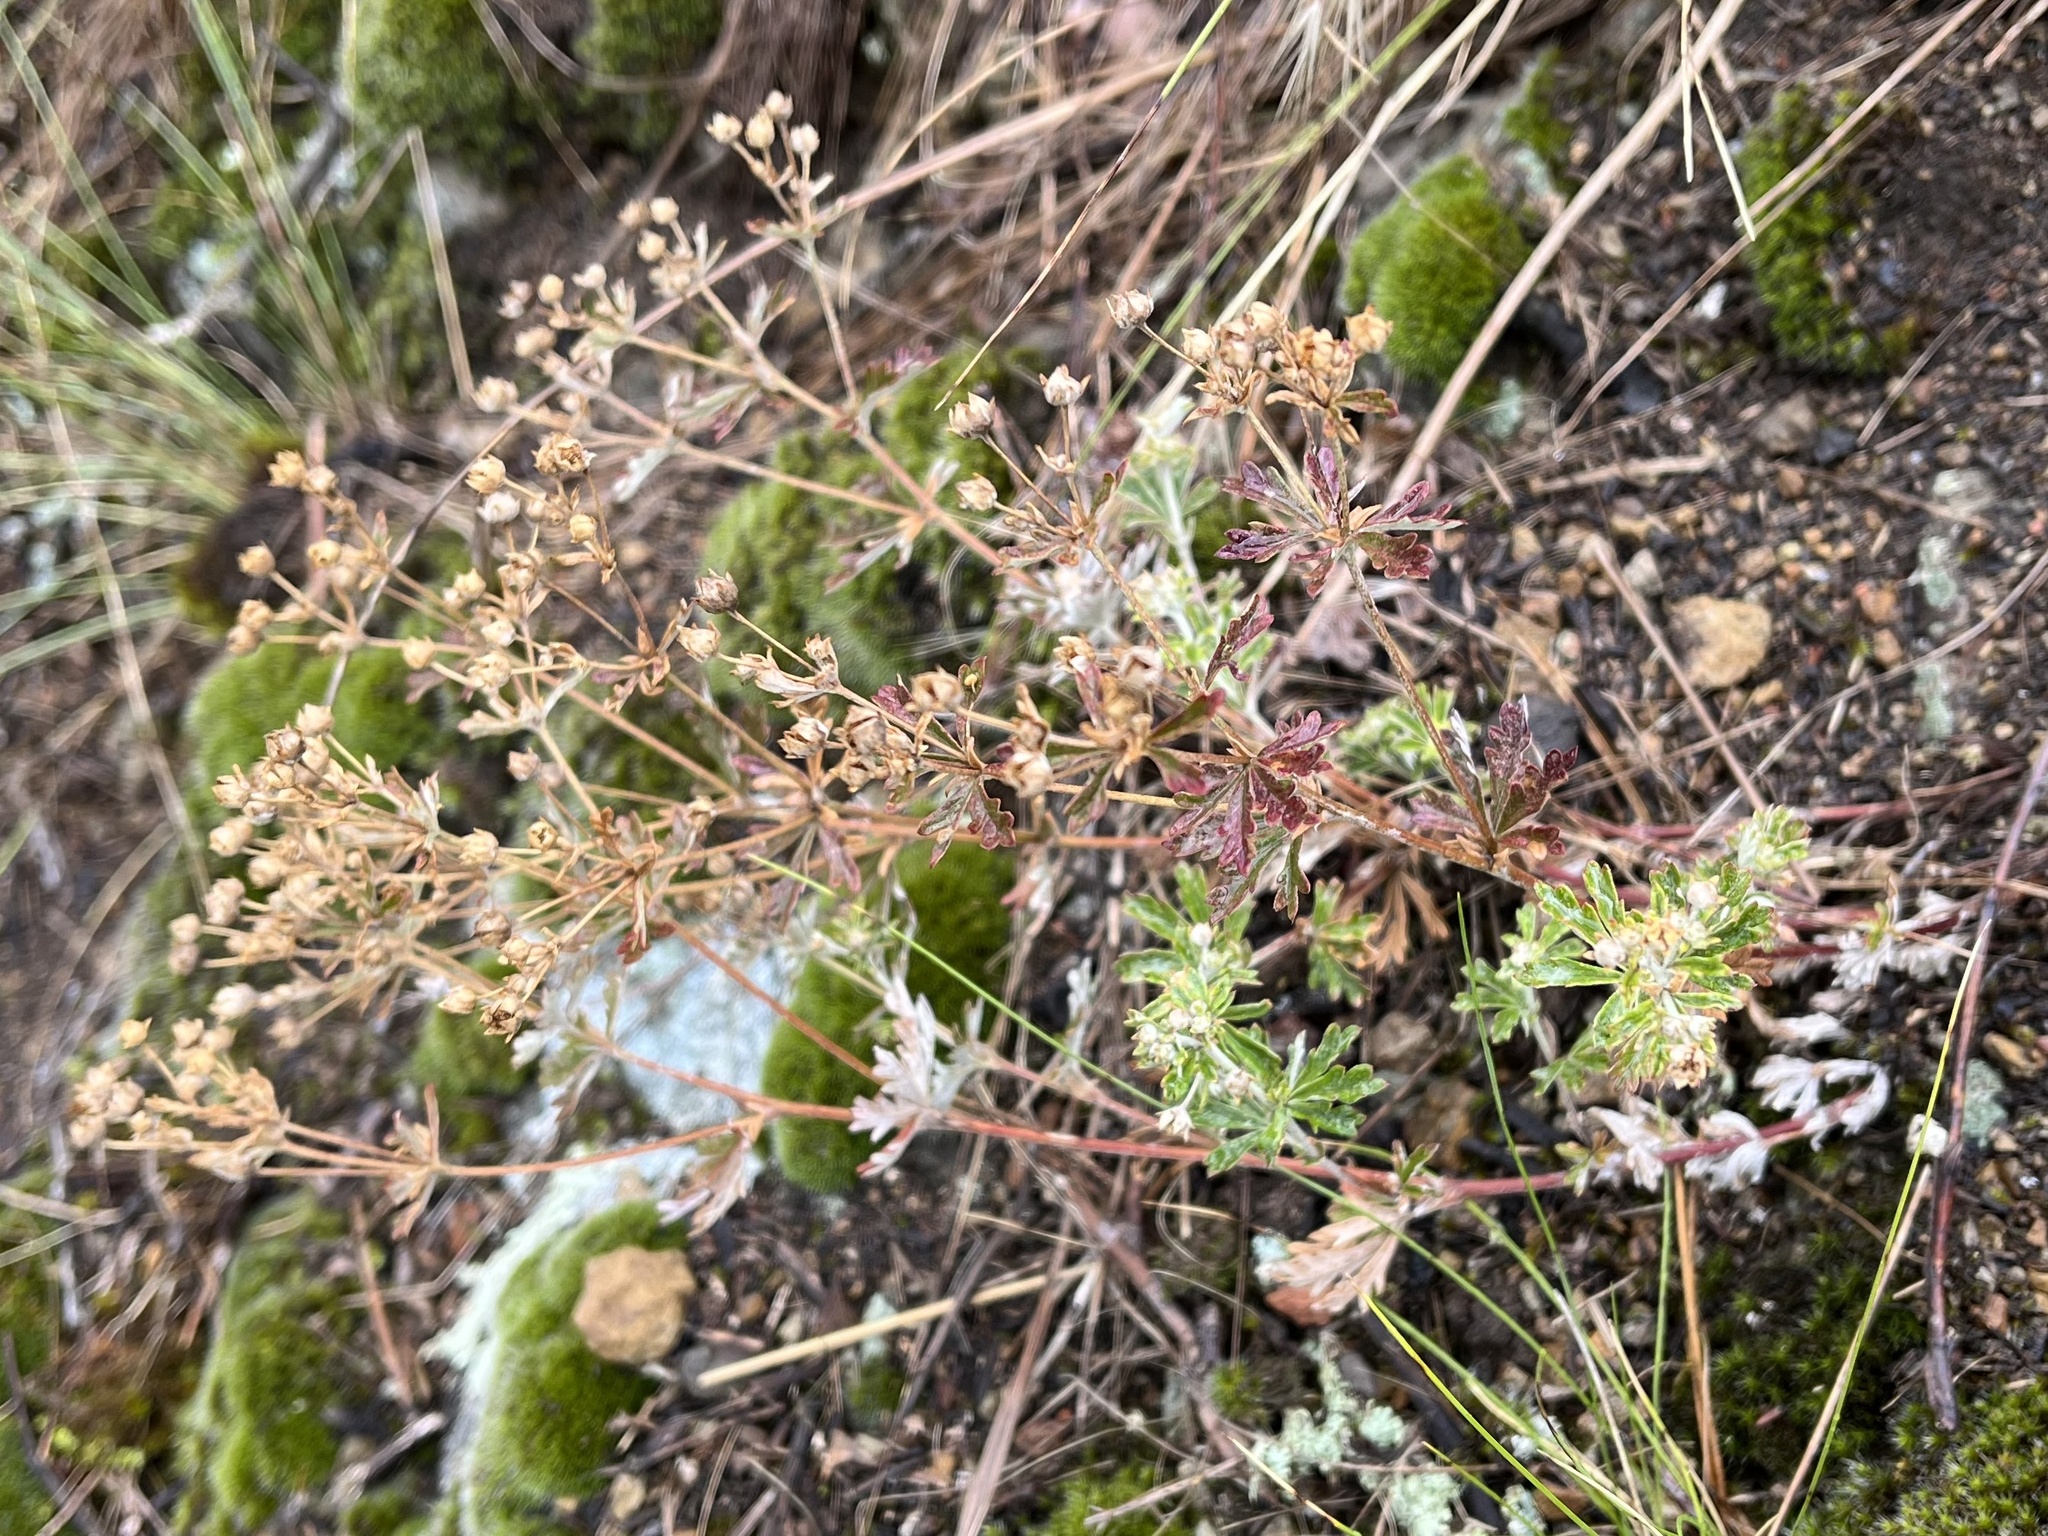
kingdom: Plantae
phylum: Tracheophyta
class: Magnoliopsida
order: Rosales
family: Rosaceae
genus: Potentilla
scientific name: Potentilla argentea
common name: Hoary cinquefoil
